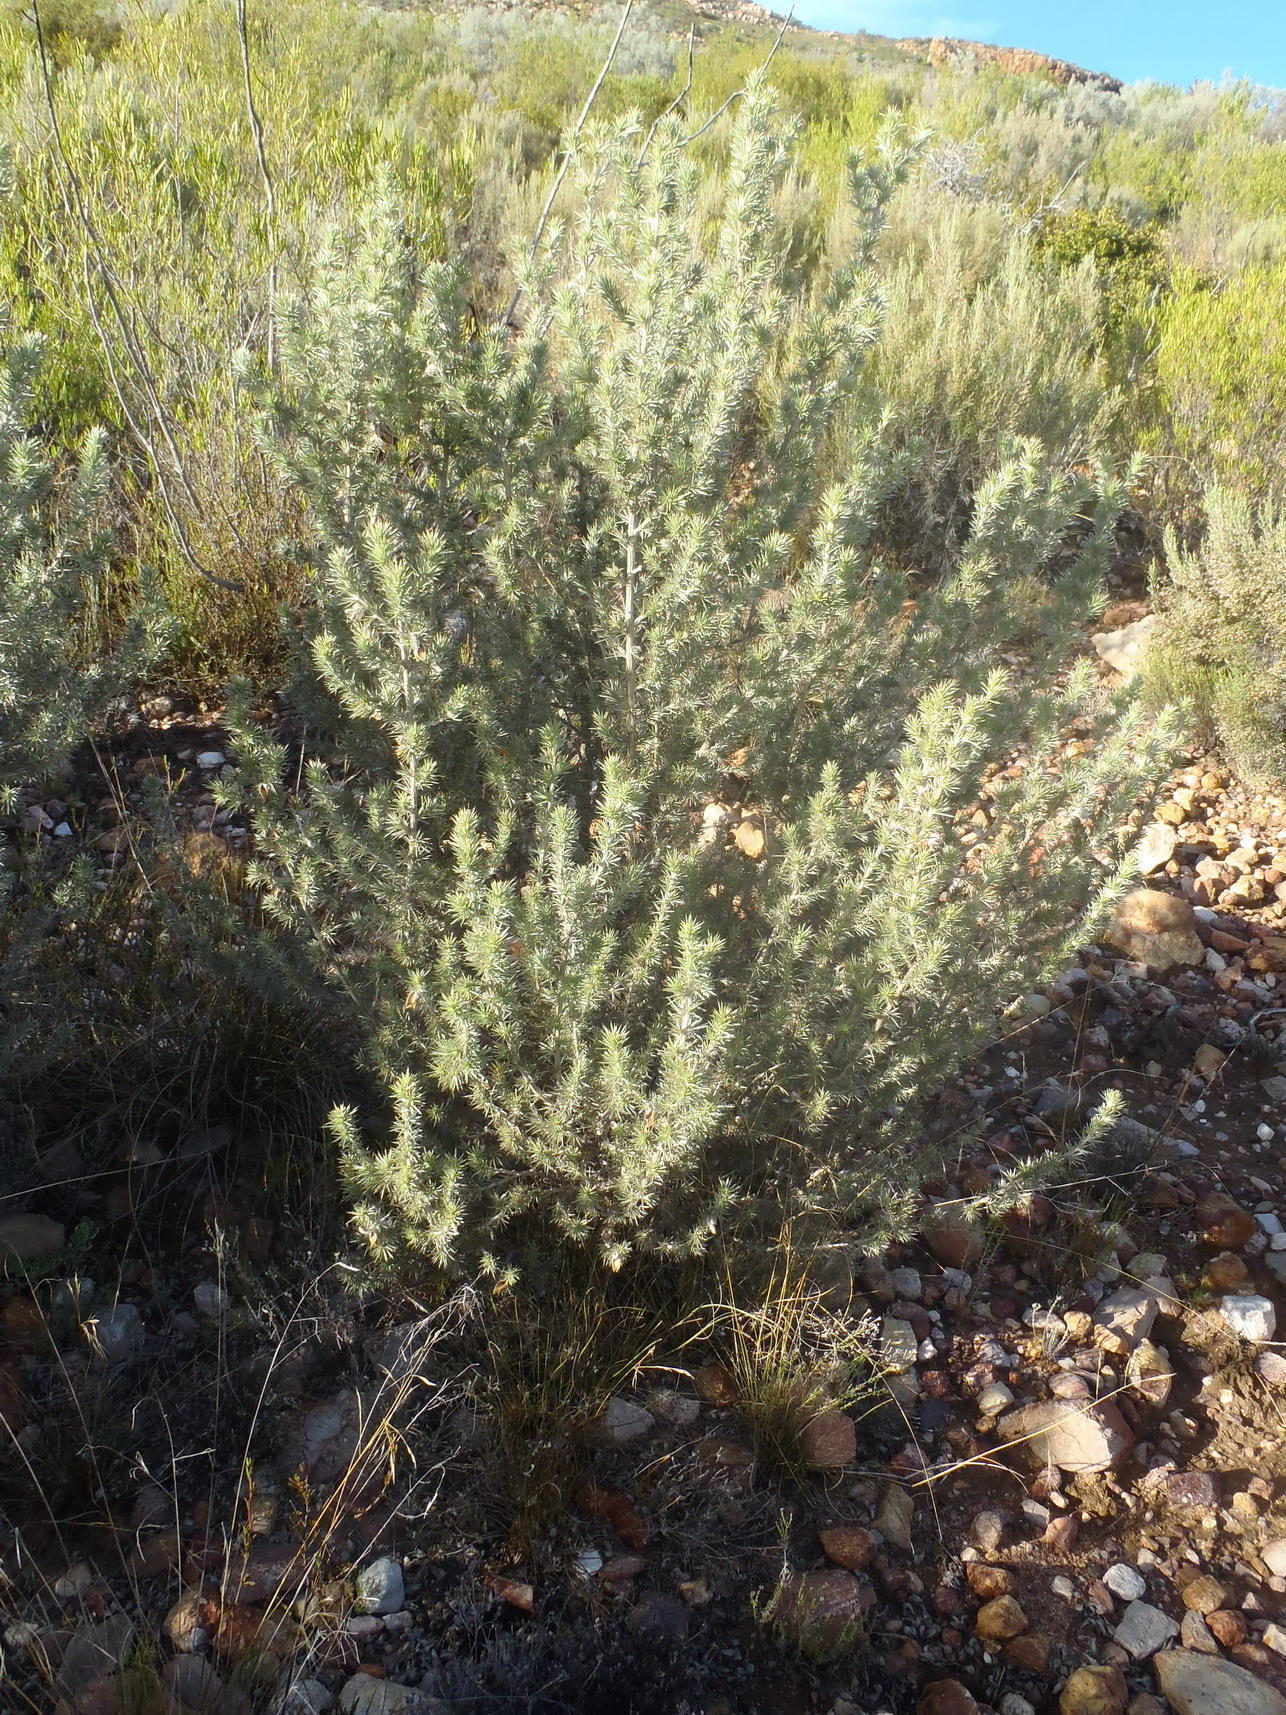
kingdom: Plantae
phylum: Tracheophyta
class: Magnoliopsida
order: Fabales
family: Fabaceae
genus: Aspalathus
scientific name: Aspalathus hystrix
